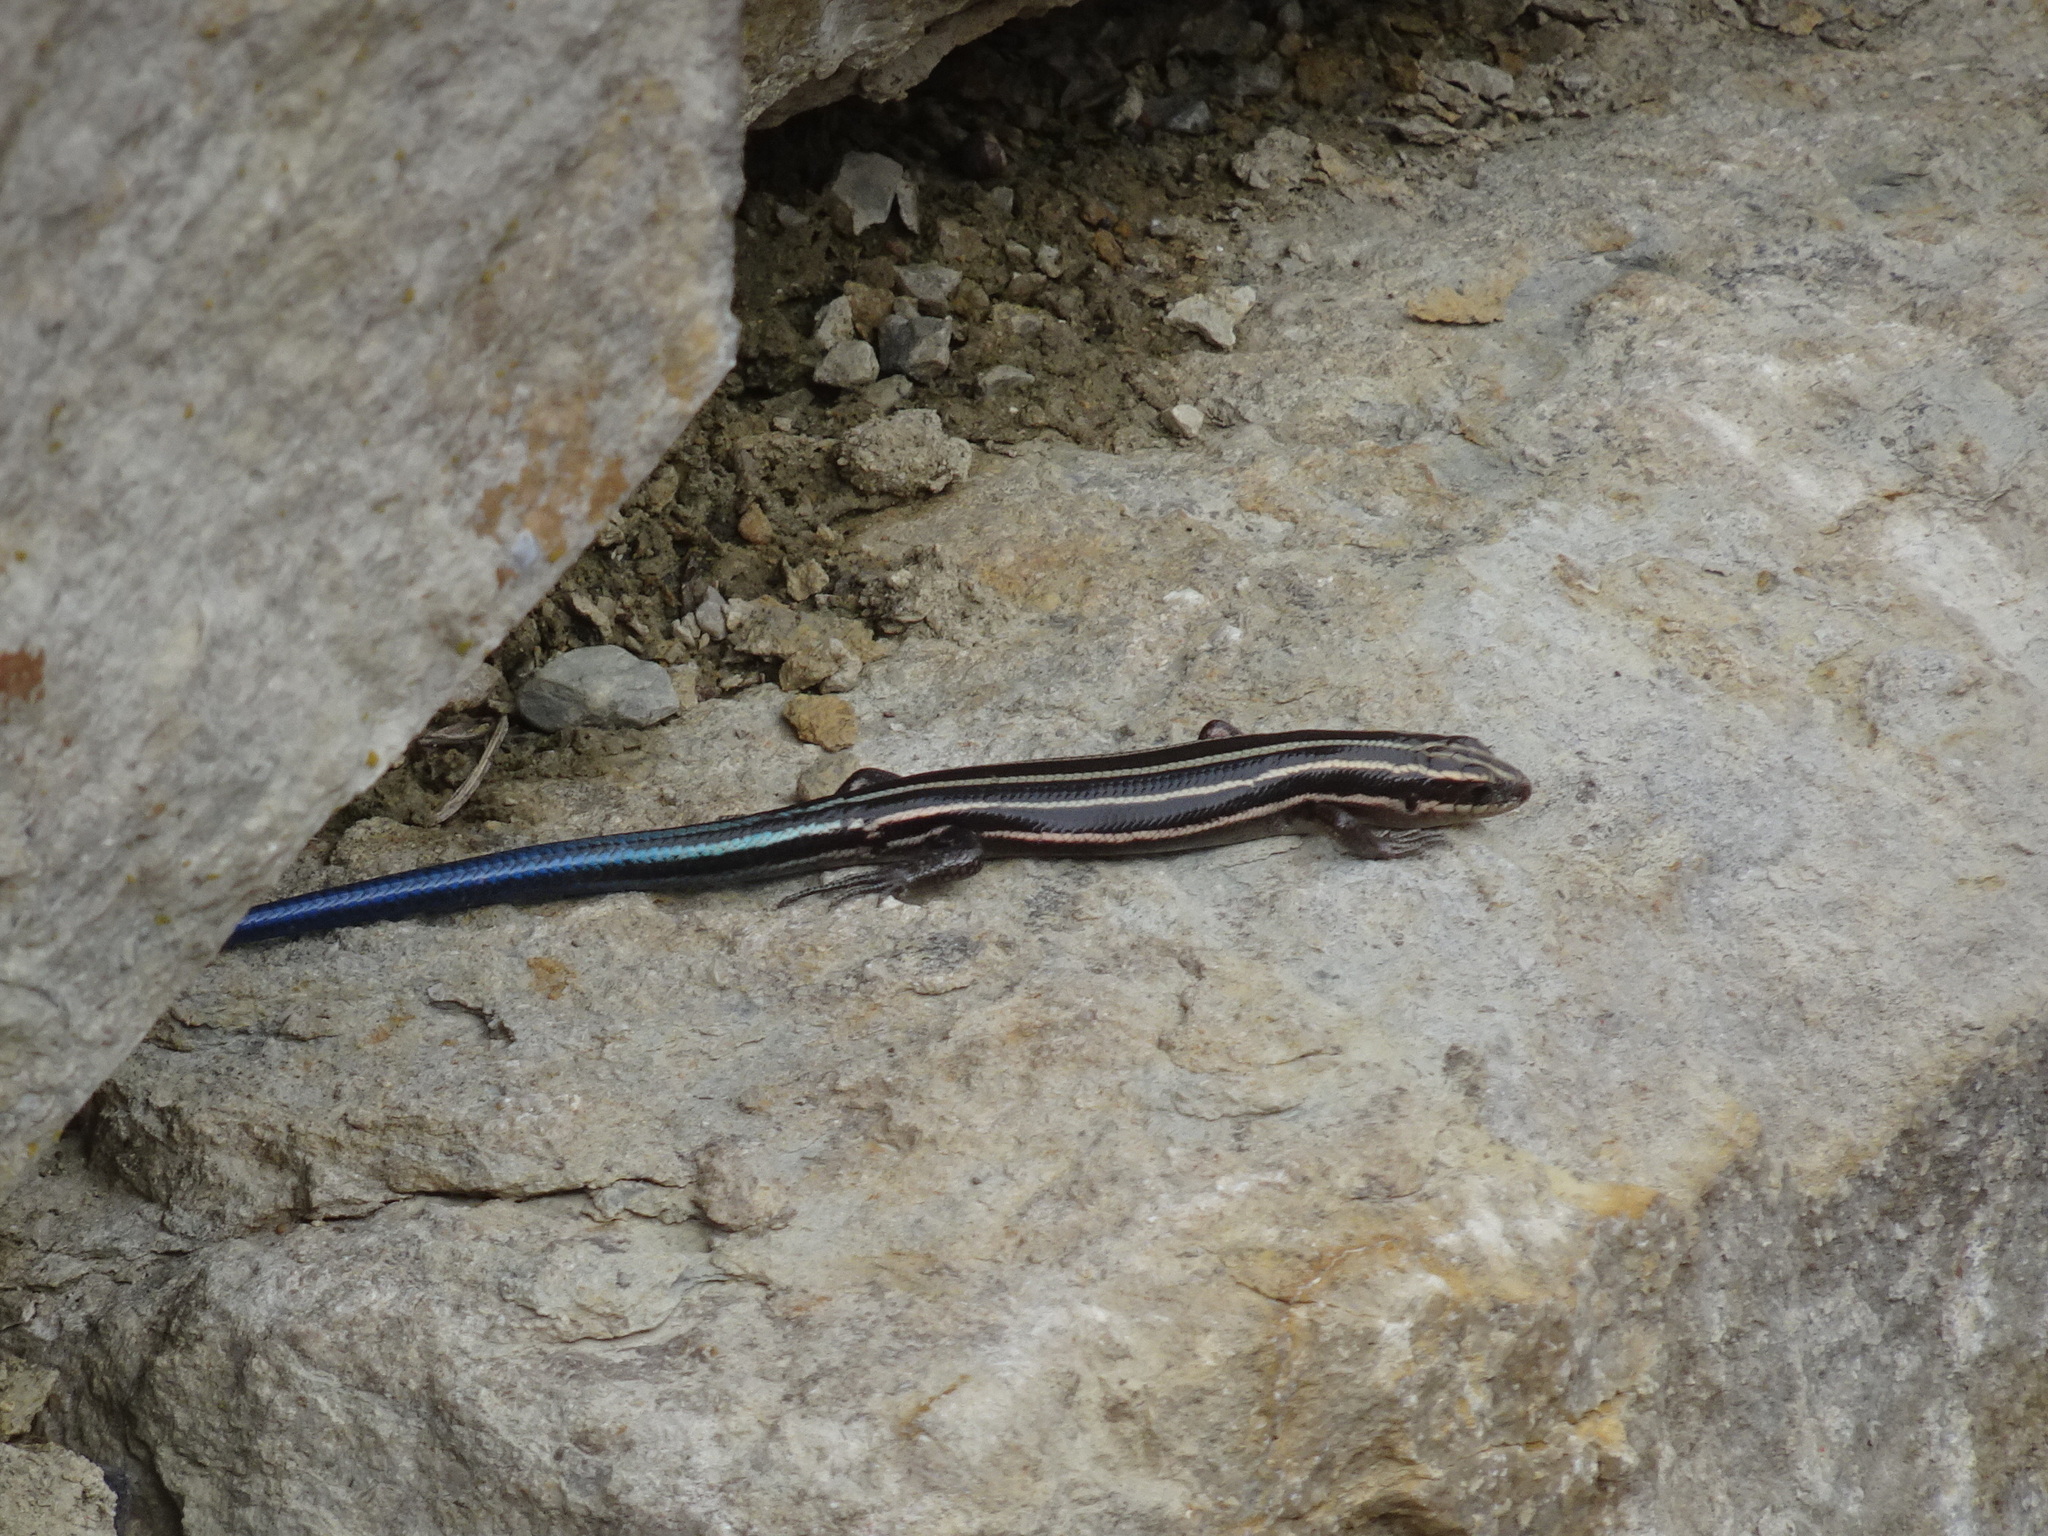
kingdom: Animalia
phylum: Chordata
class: Squamata
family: Scincidae
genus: Plestiodon
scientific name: Plestiodon fasciatus
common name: Five-lined skink
